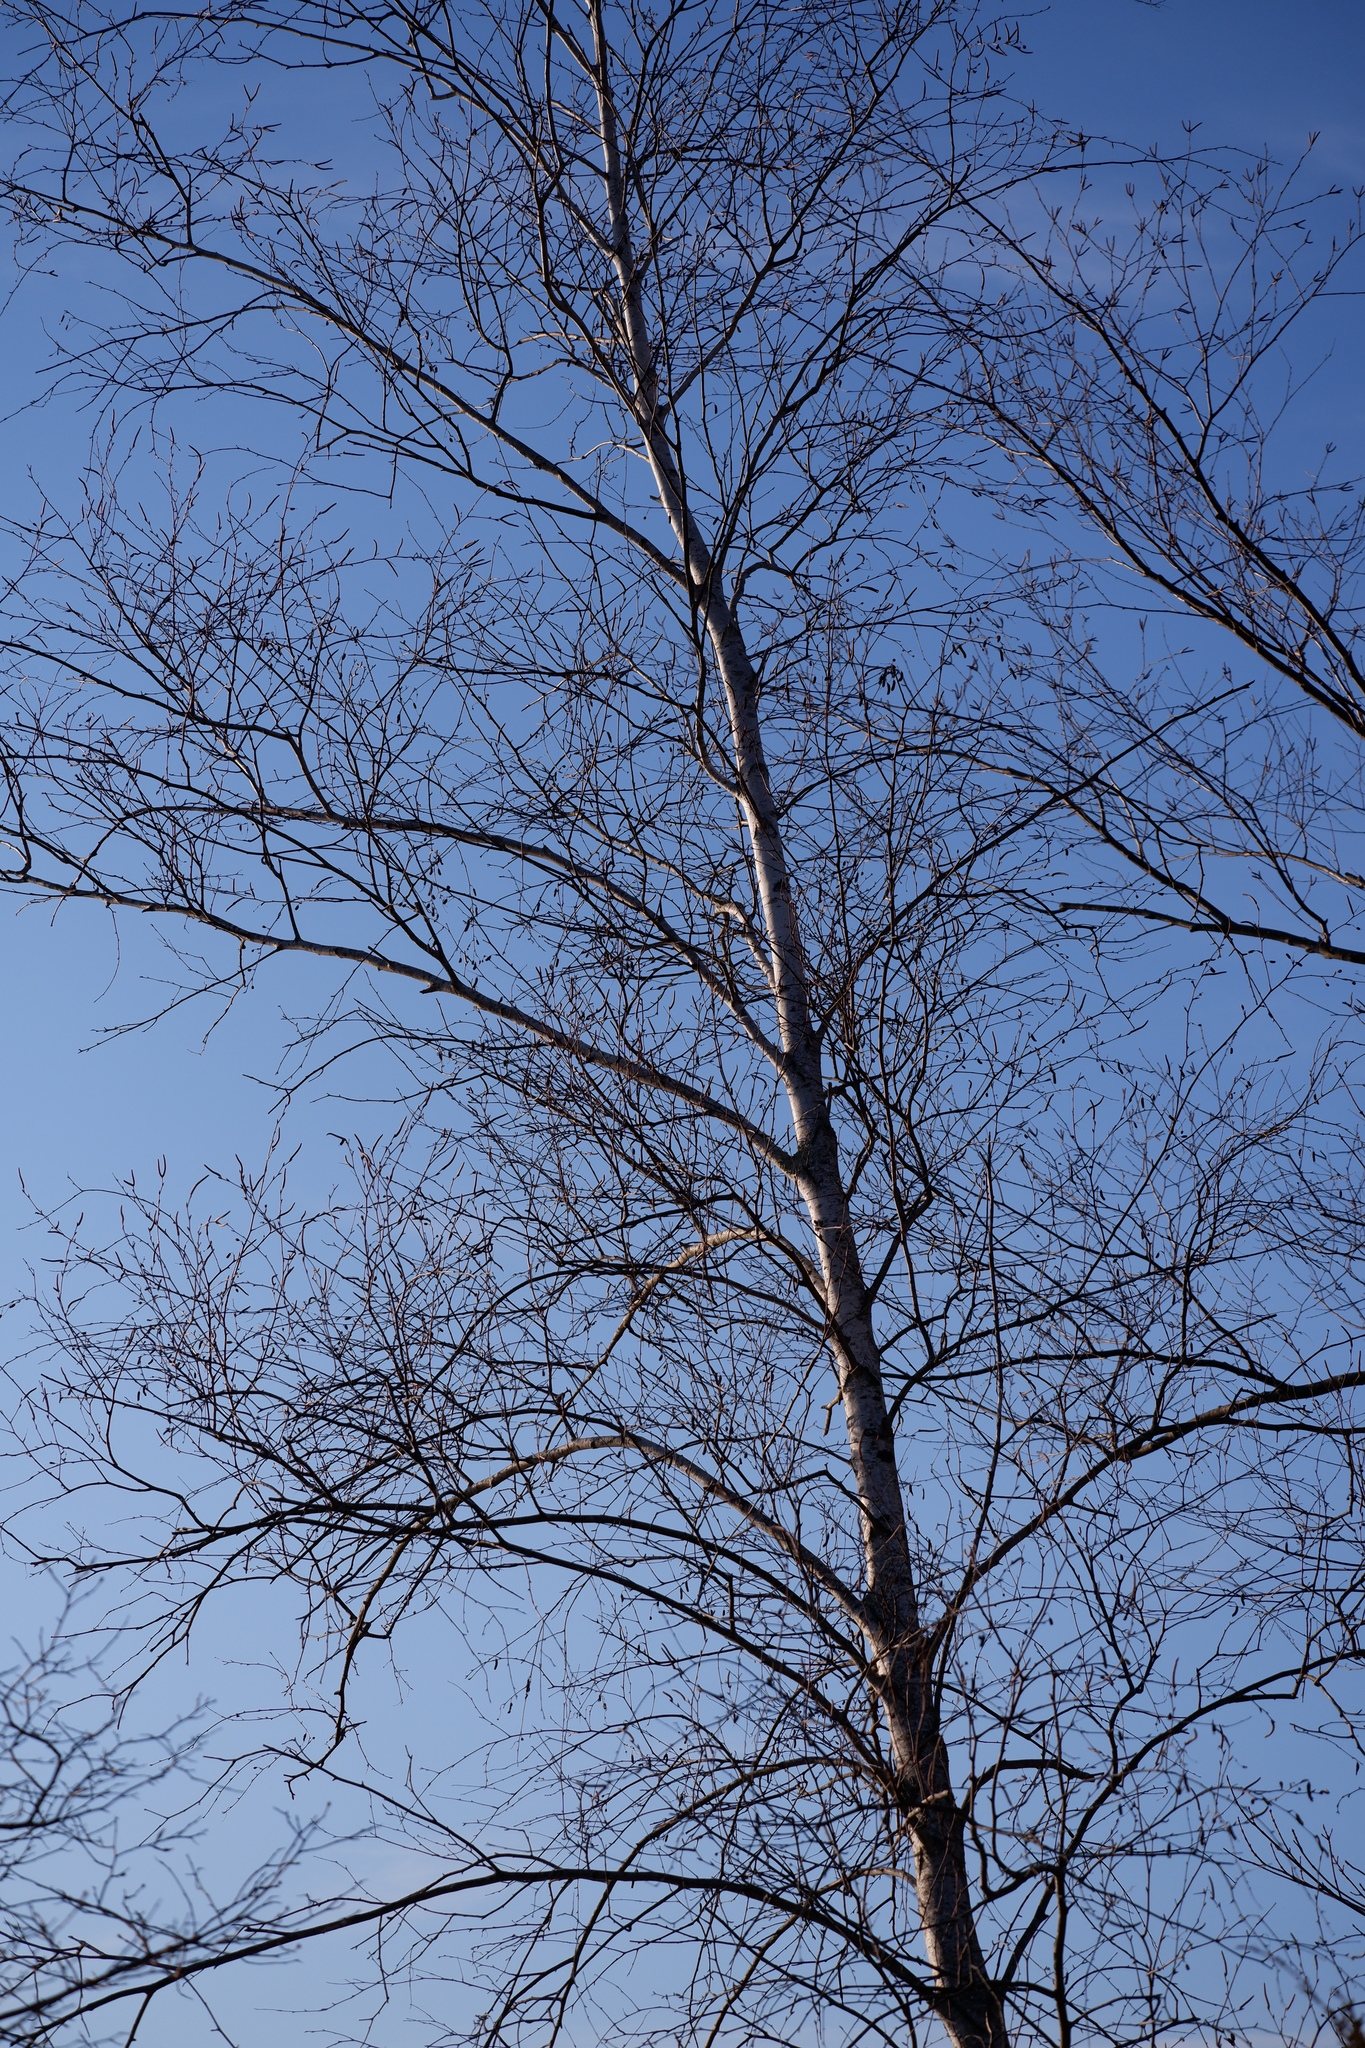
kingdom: Plantae
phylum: Tracheophyta
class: Magnoliopsida
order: Fagales
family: Betulaceae
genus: Betula
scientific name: Betula populifolia
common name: Fire birch
